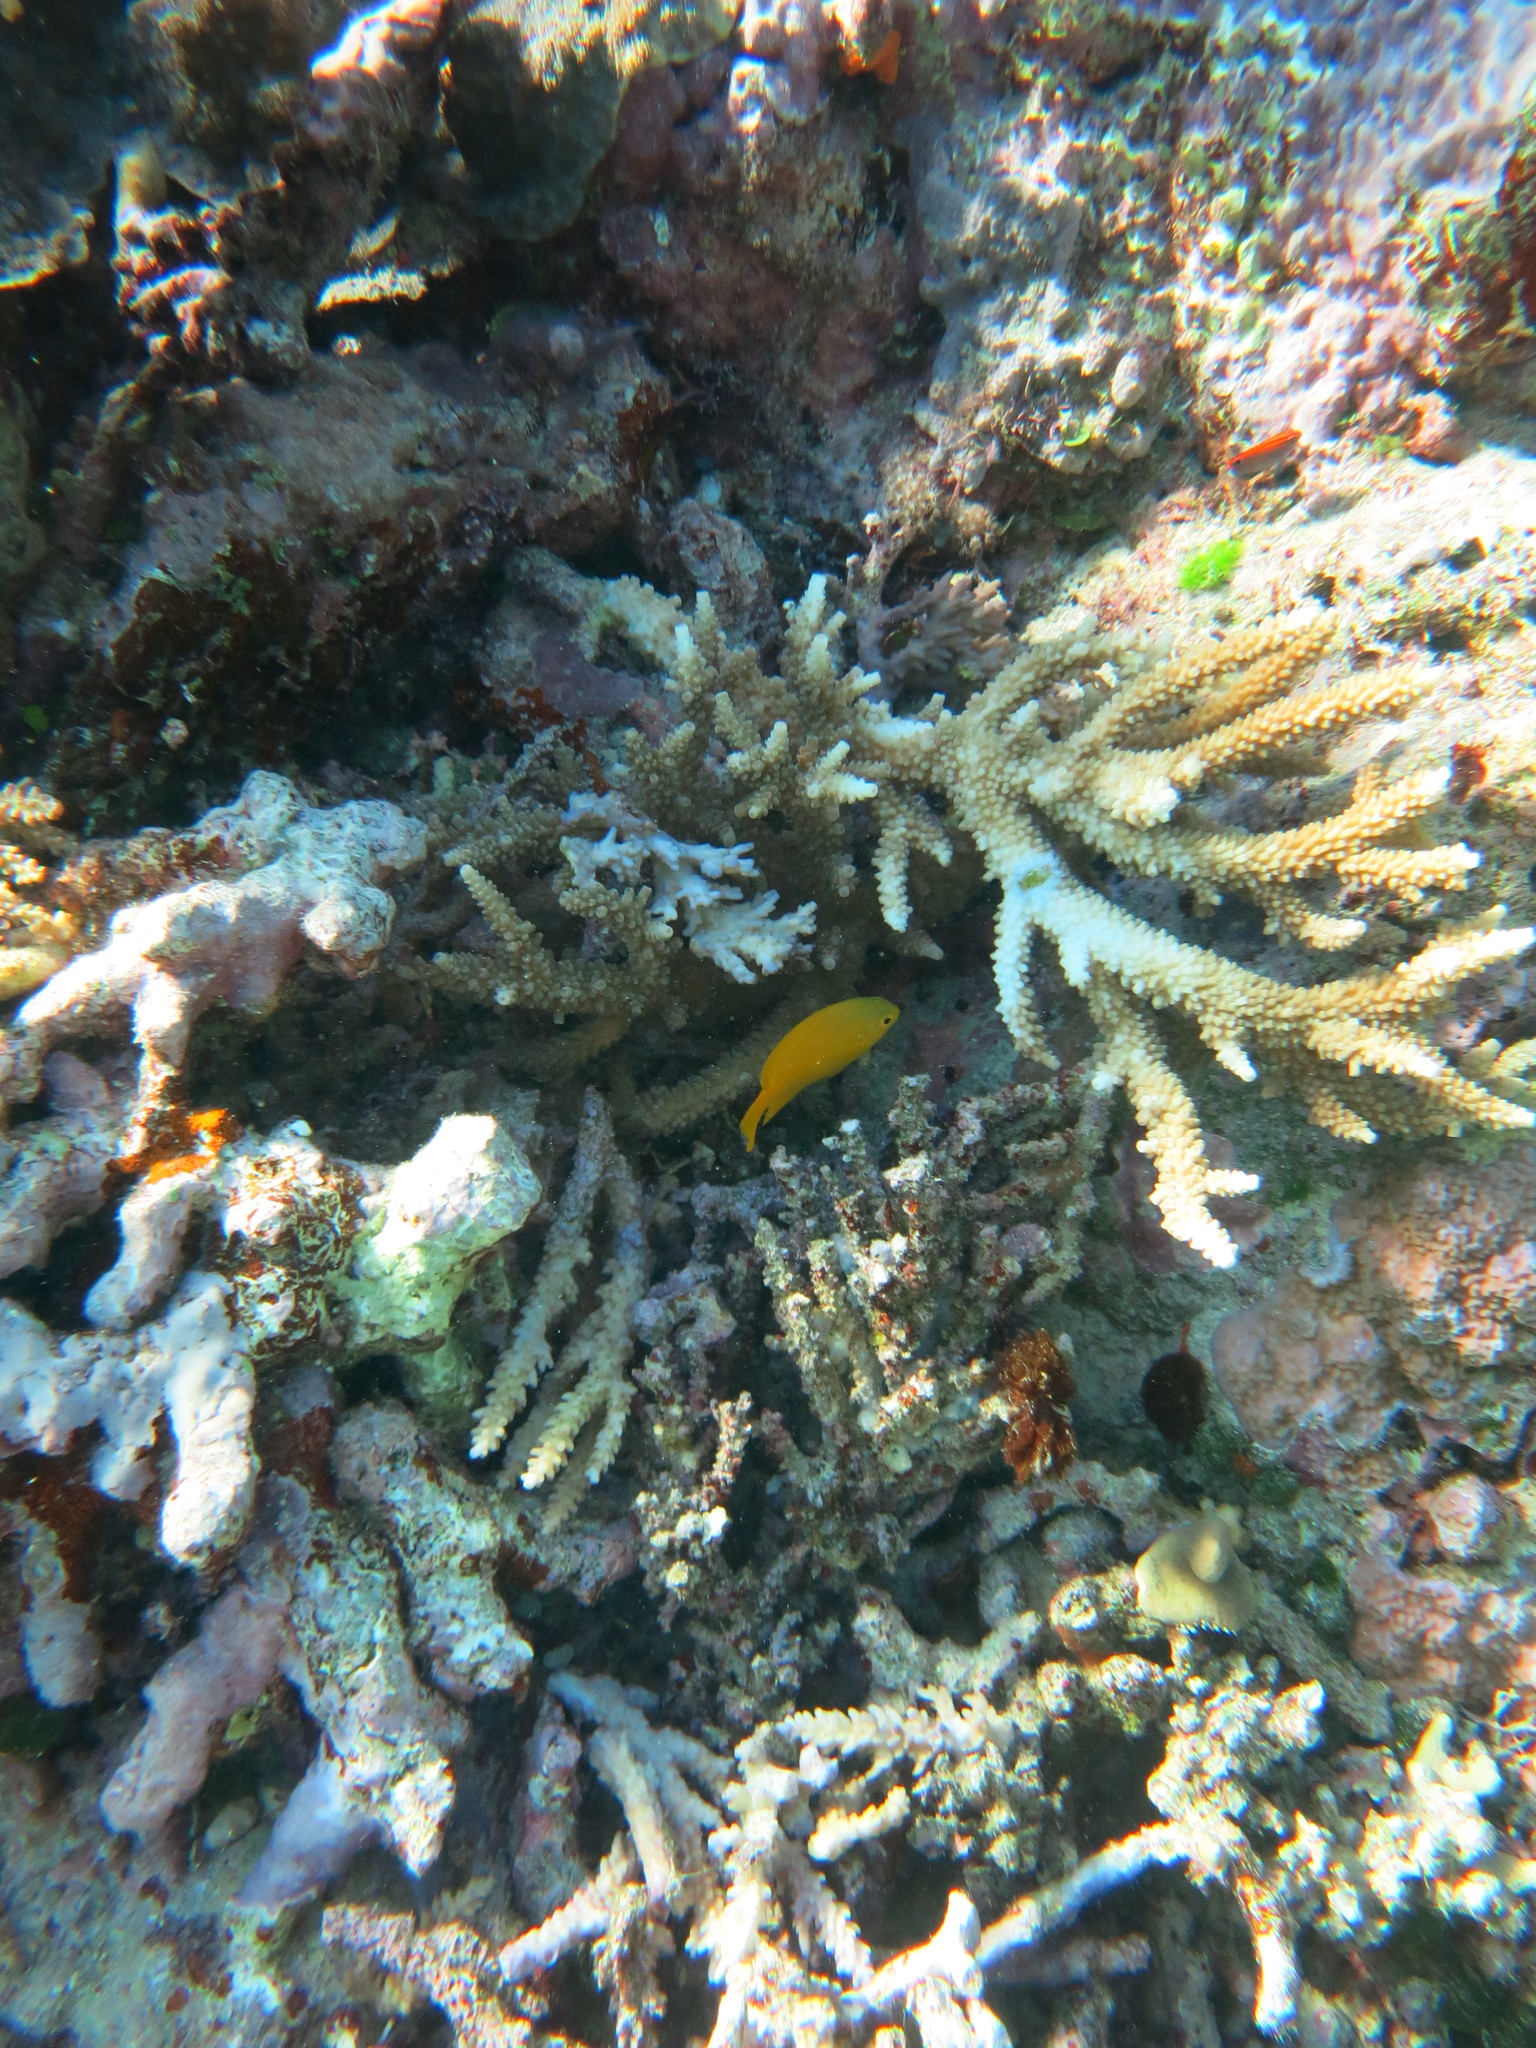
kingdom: Animalia
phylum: Chordata
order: Perciformes
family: Pomacentridae
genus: Pomacentrus
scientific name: Pomacentrus moluccensis
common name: Lemon damsel
